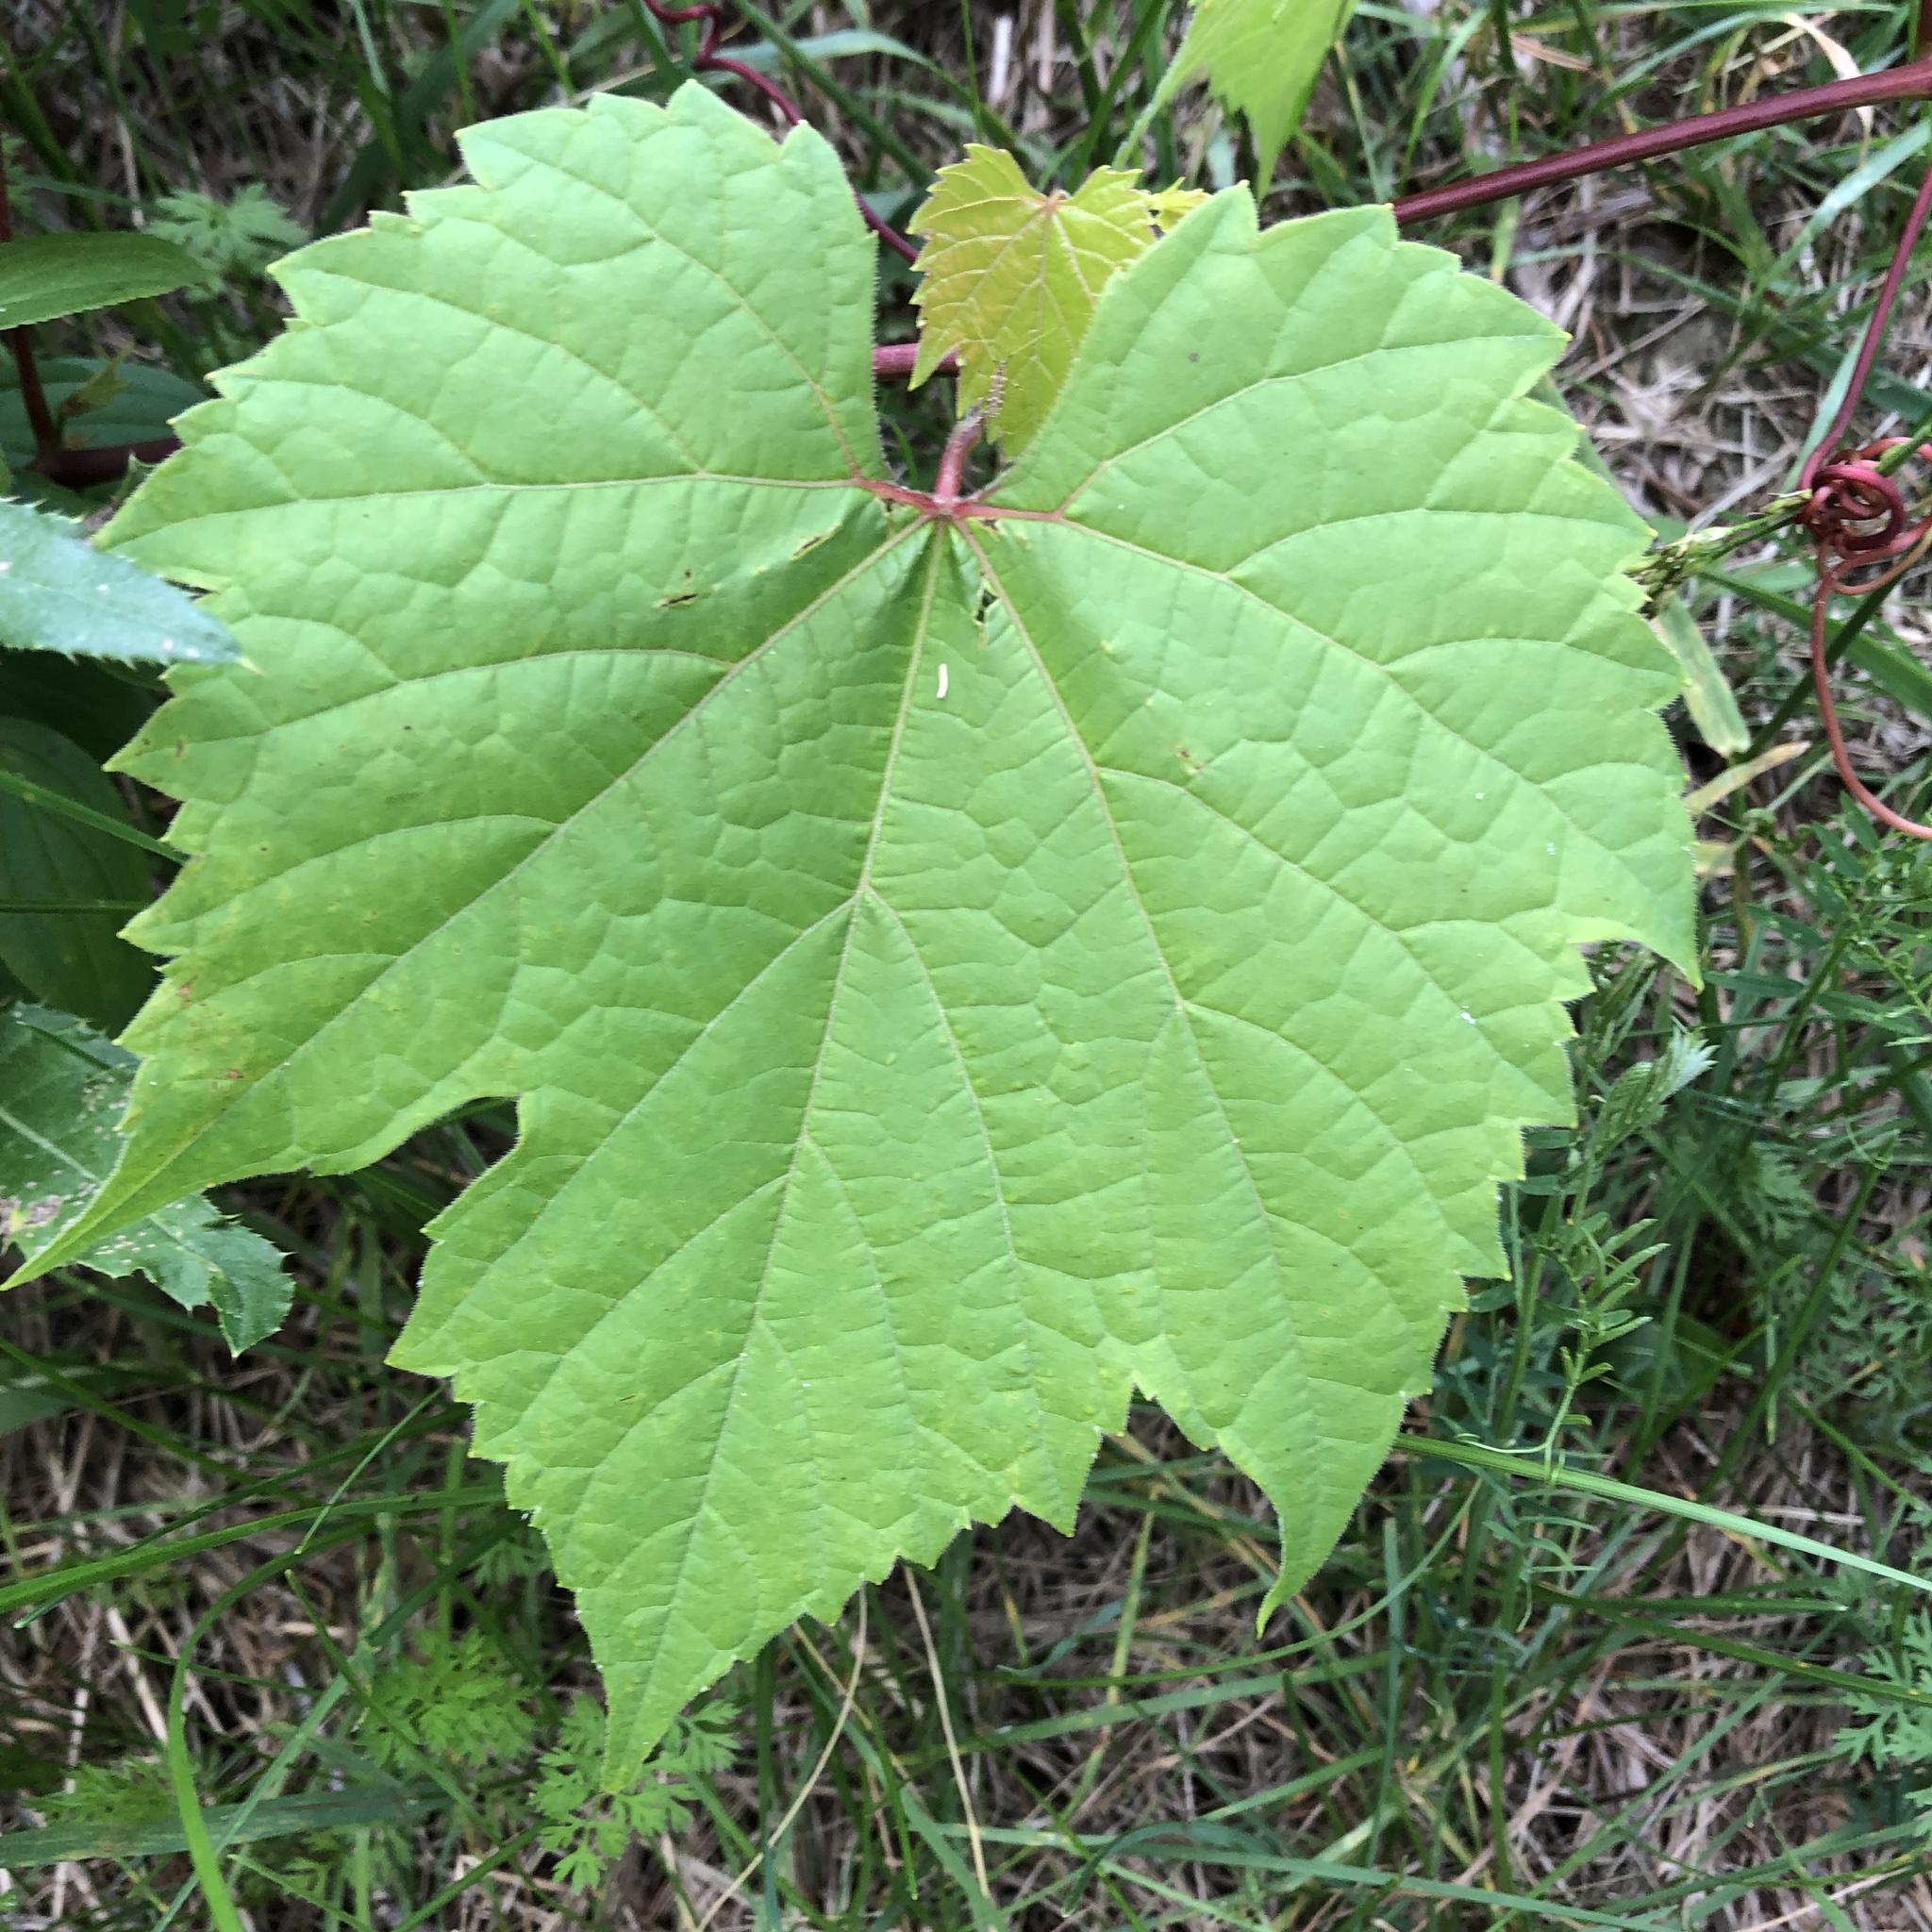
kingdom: Plantae
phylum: Tracheophyta
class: Magnoliopsida
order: Vitales
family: Vitaceae
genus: Vitis
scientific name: Vitis riparia
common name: Frost grape
